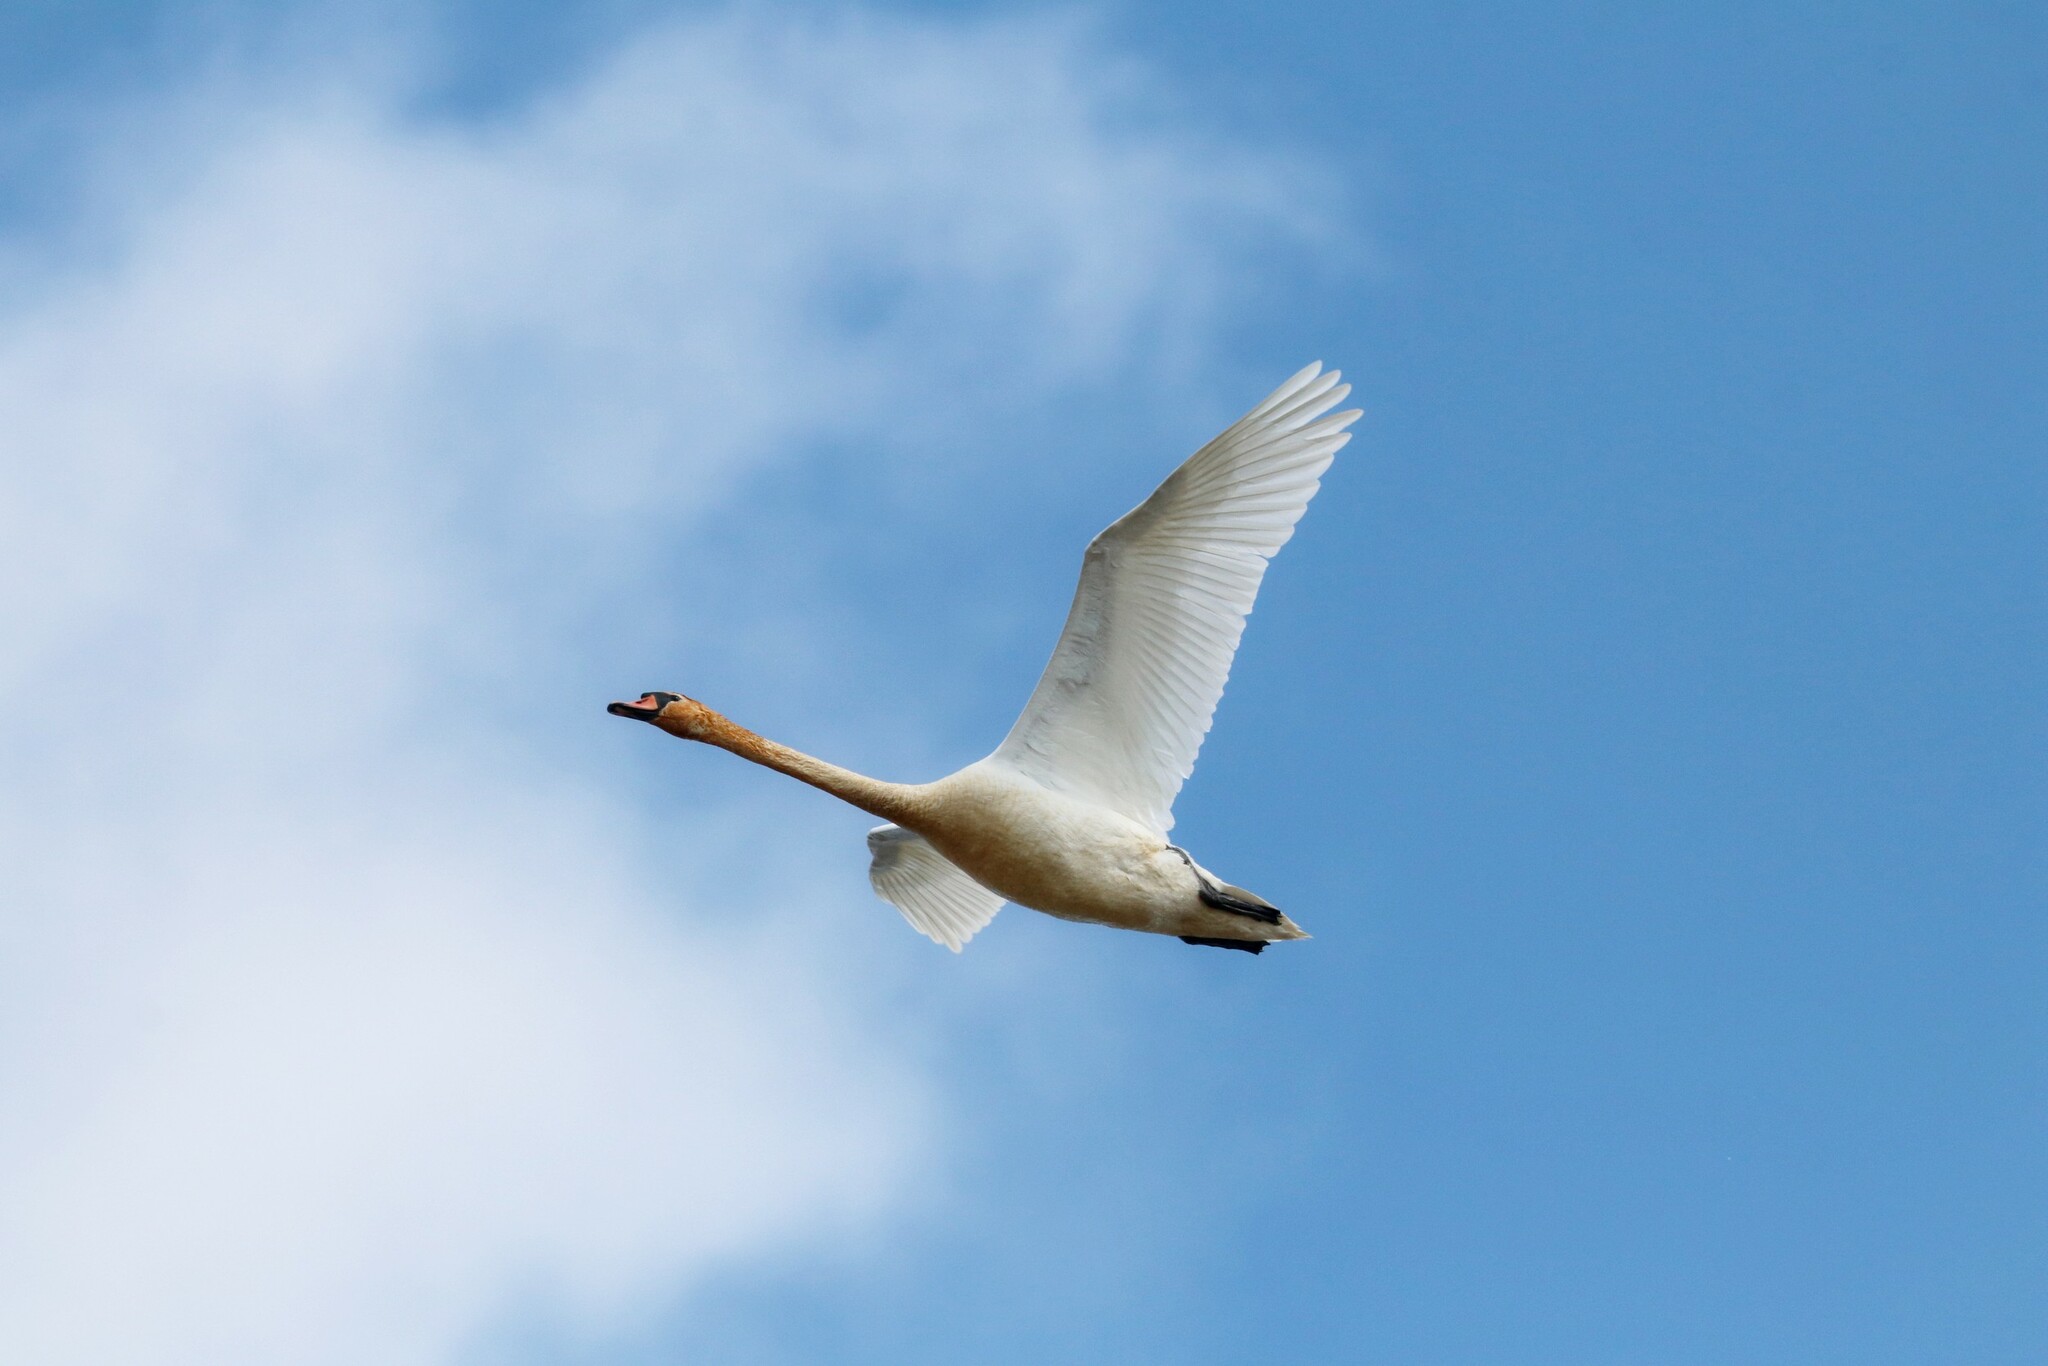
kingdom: Animalia
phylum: Chordata
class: Aves
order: Anseriformes
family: Anatidae
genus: Cygnus
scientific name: Cygnus olor
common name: Mute swan
